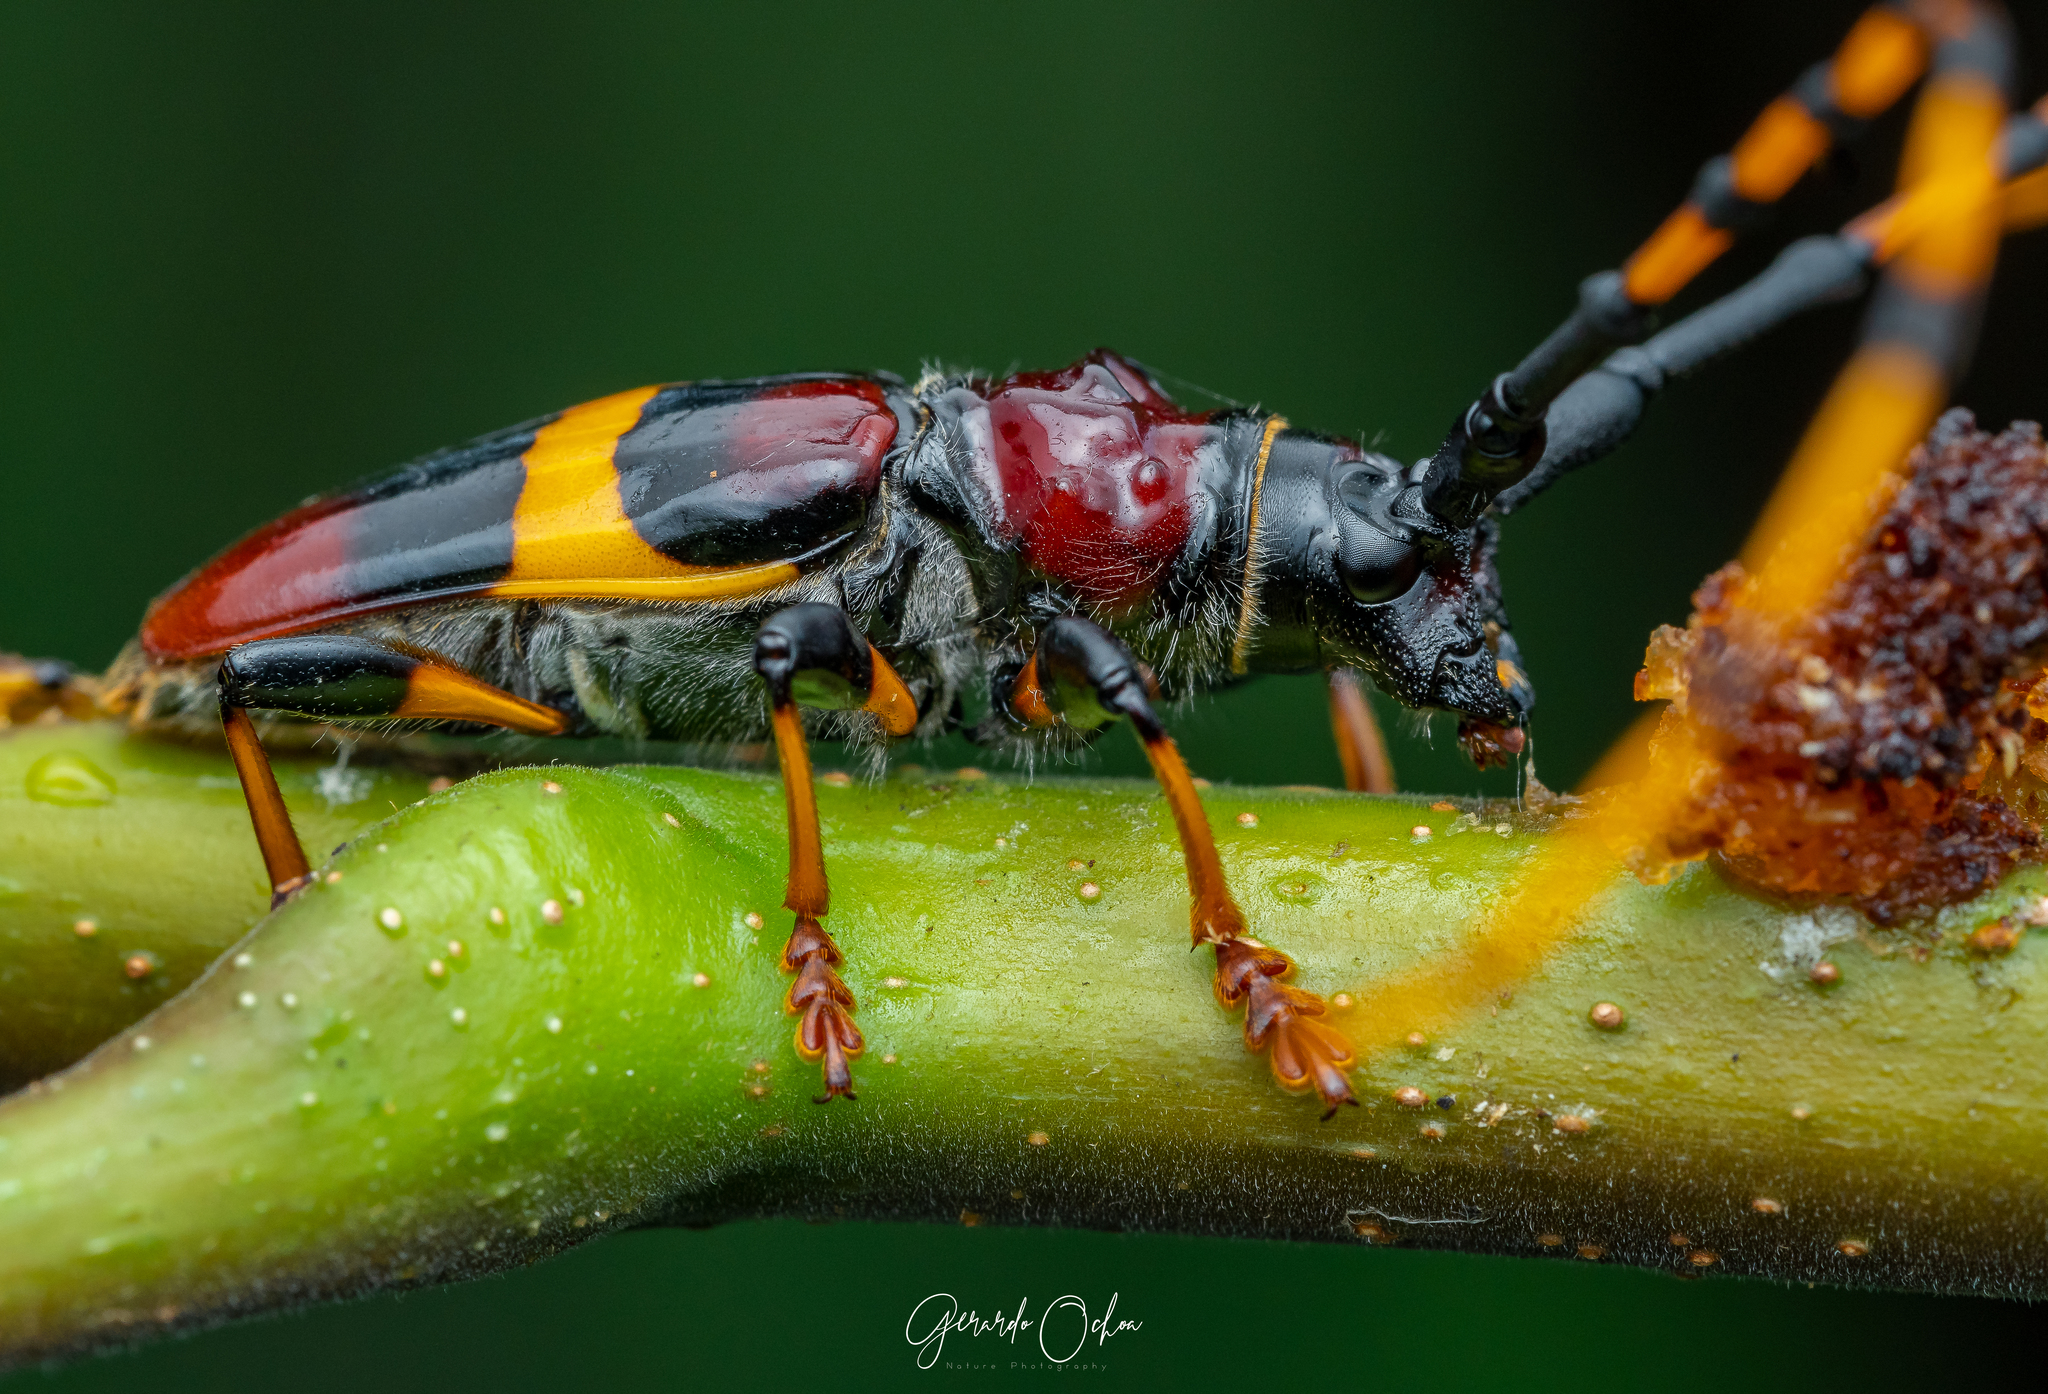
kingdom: Animalia
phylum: Arthropoda
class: Insecta
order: Coleoptera
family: Cerambycidae
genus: Trachyderes
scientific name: Trachyderes elegans
